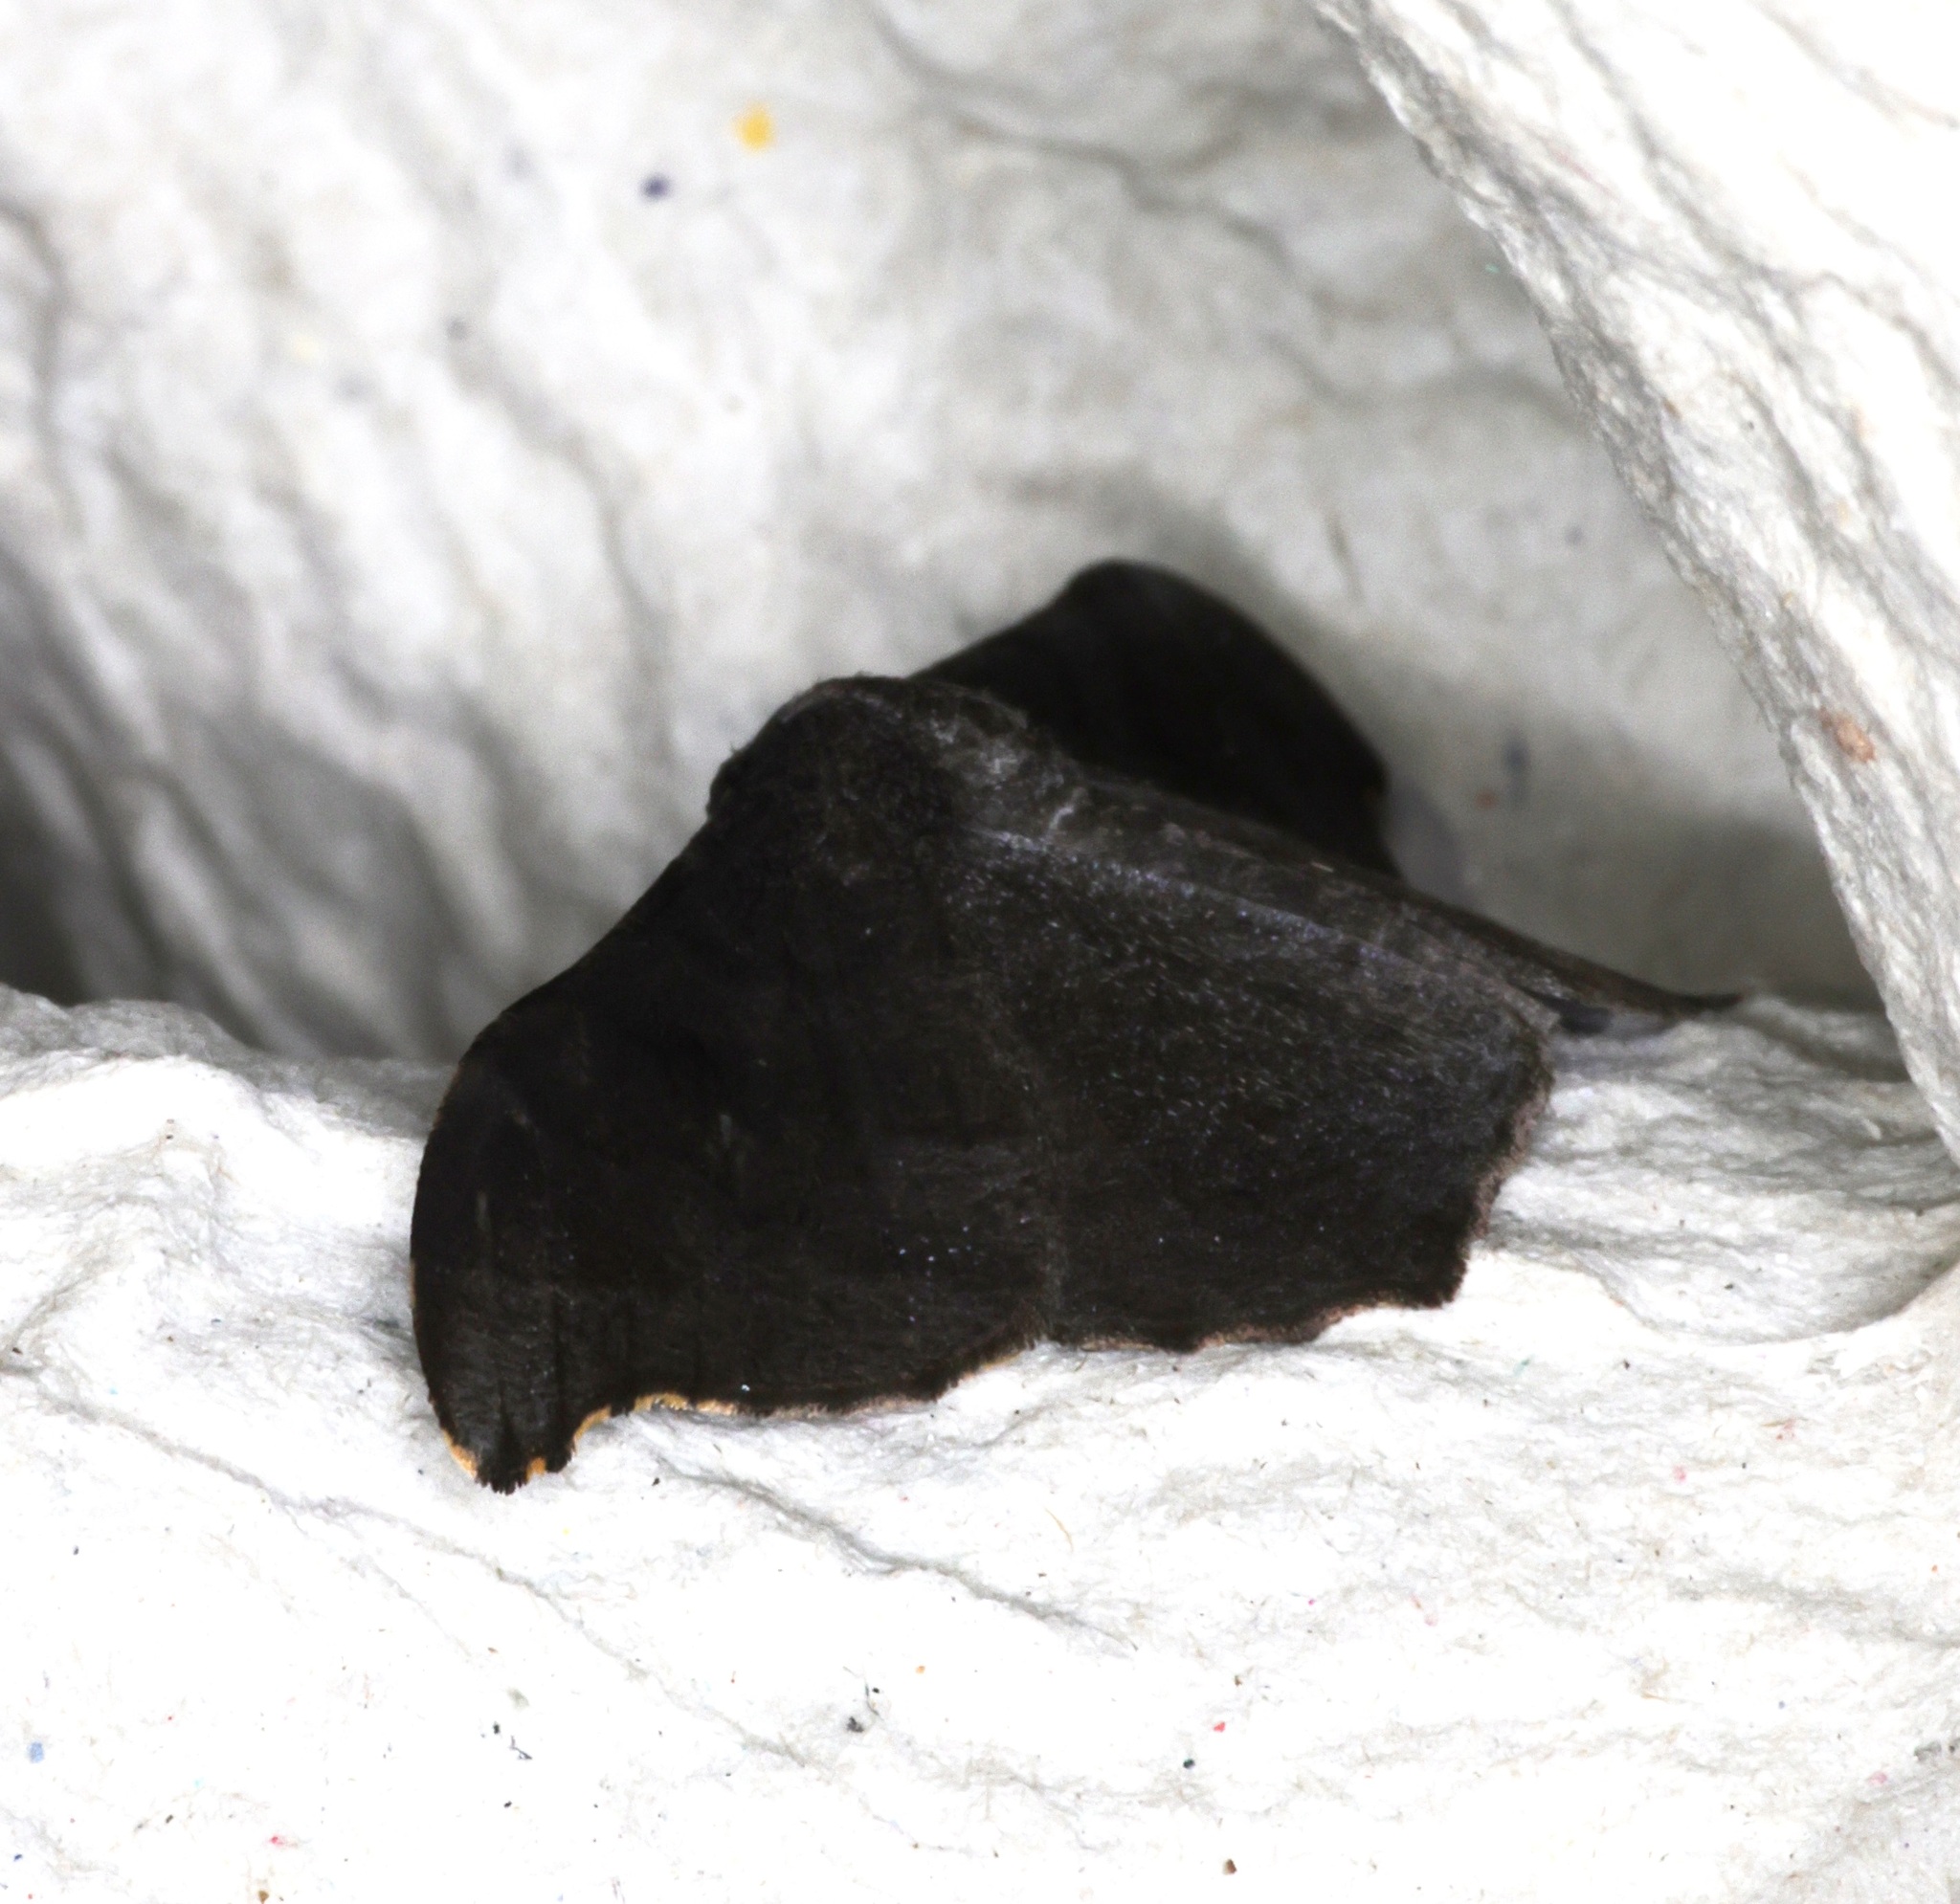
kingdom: Animalia
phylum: Arthropoda
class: Insecta
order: Lepidoptera
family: Geometridae
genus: Hyposidra
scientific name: Hyposidra talaca
